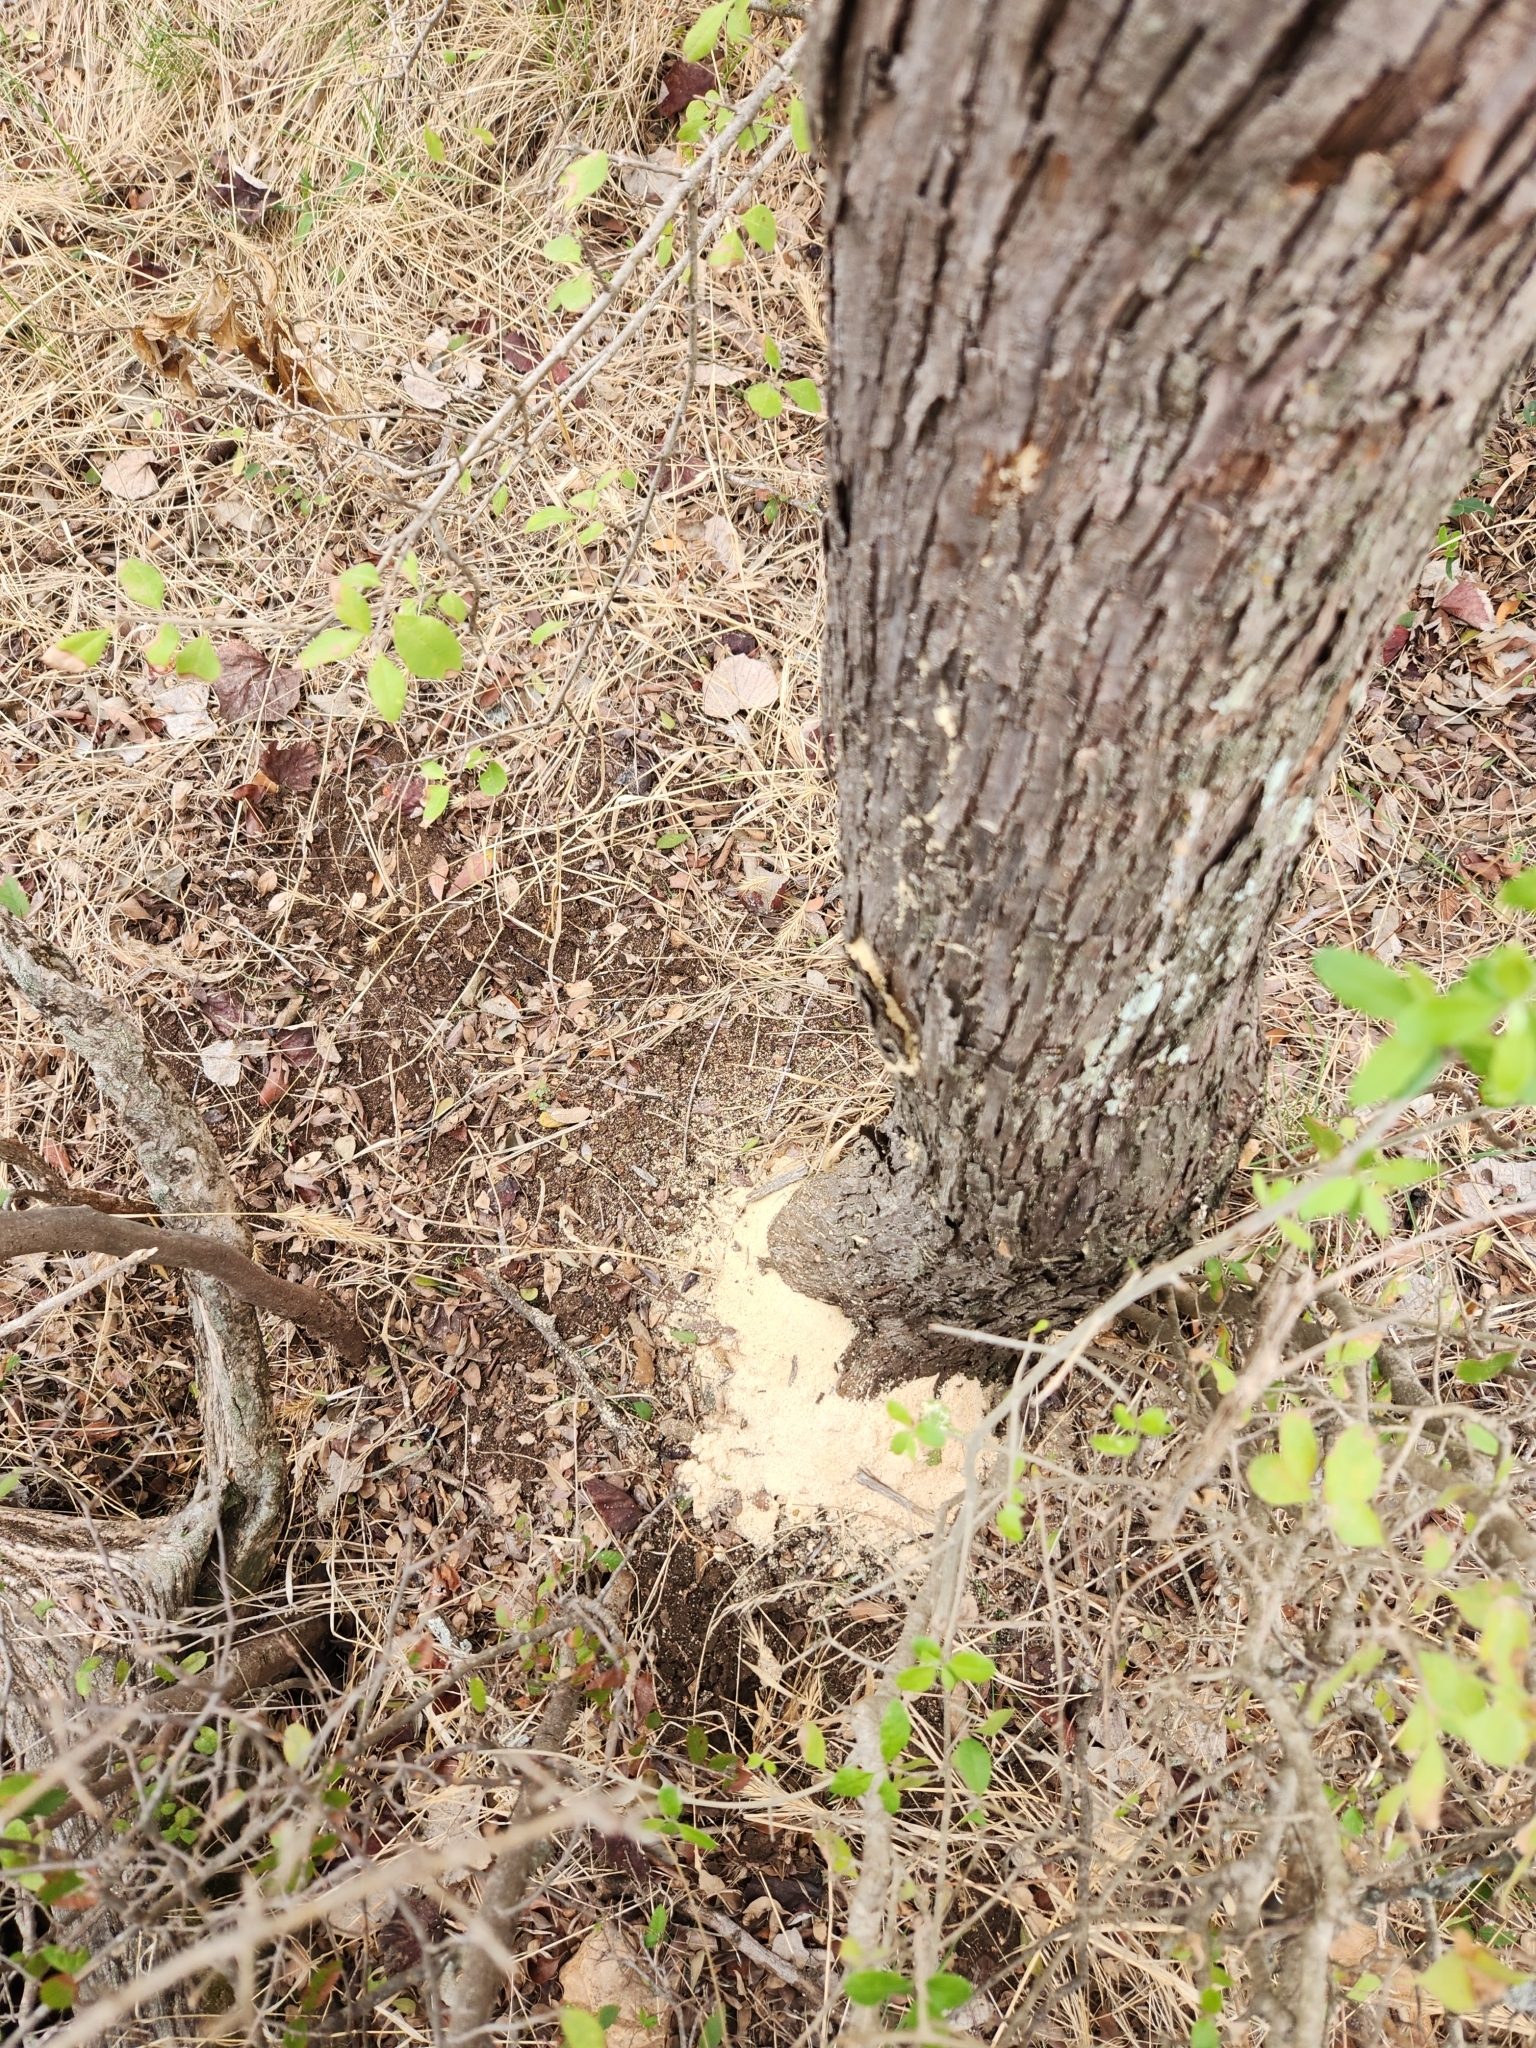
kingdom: Plantae
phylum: Tracheophyta
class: Magnoliopsida
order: Ericales
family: Sapotaceae
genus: Sideroxylon
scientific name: Sideroxylon lanuginosum
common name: Chittamwood
